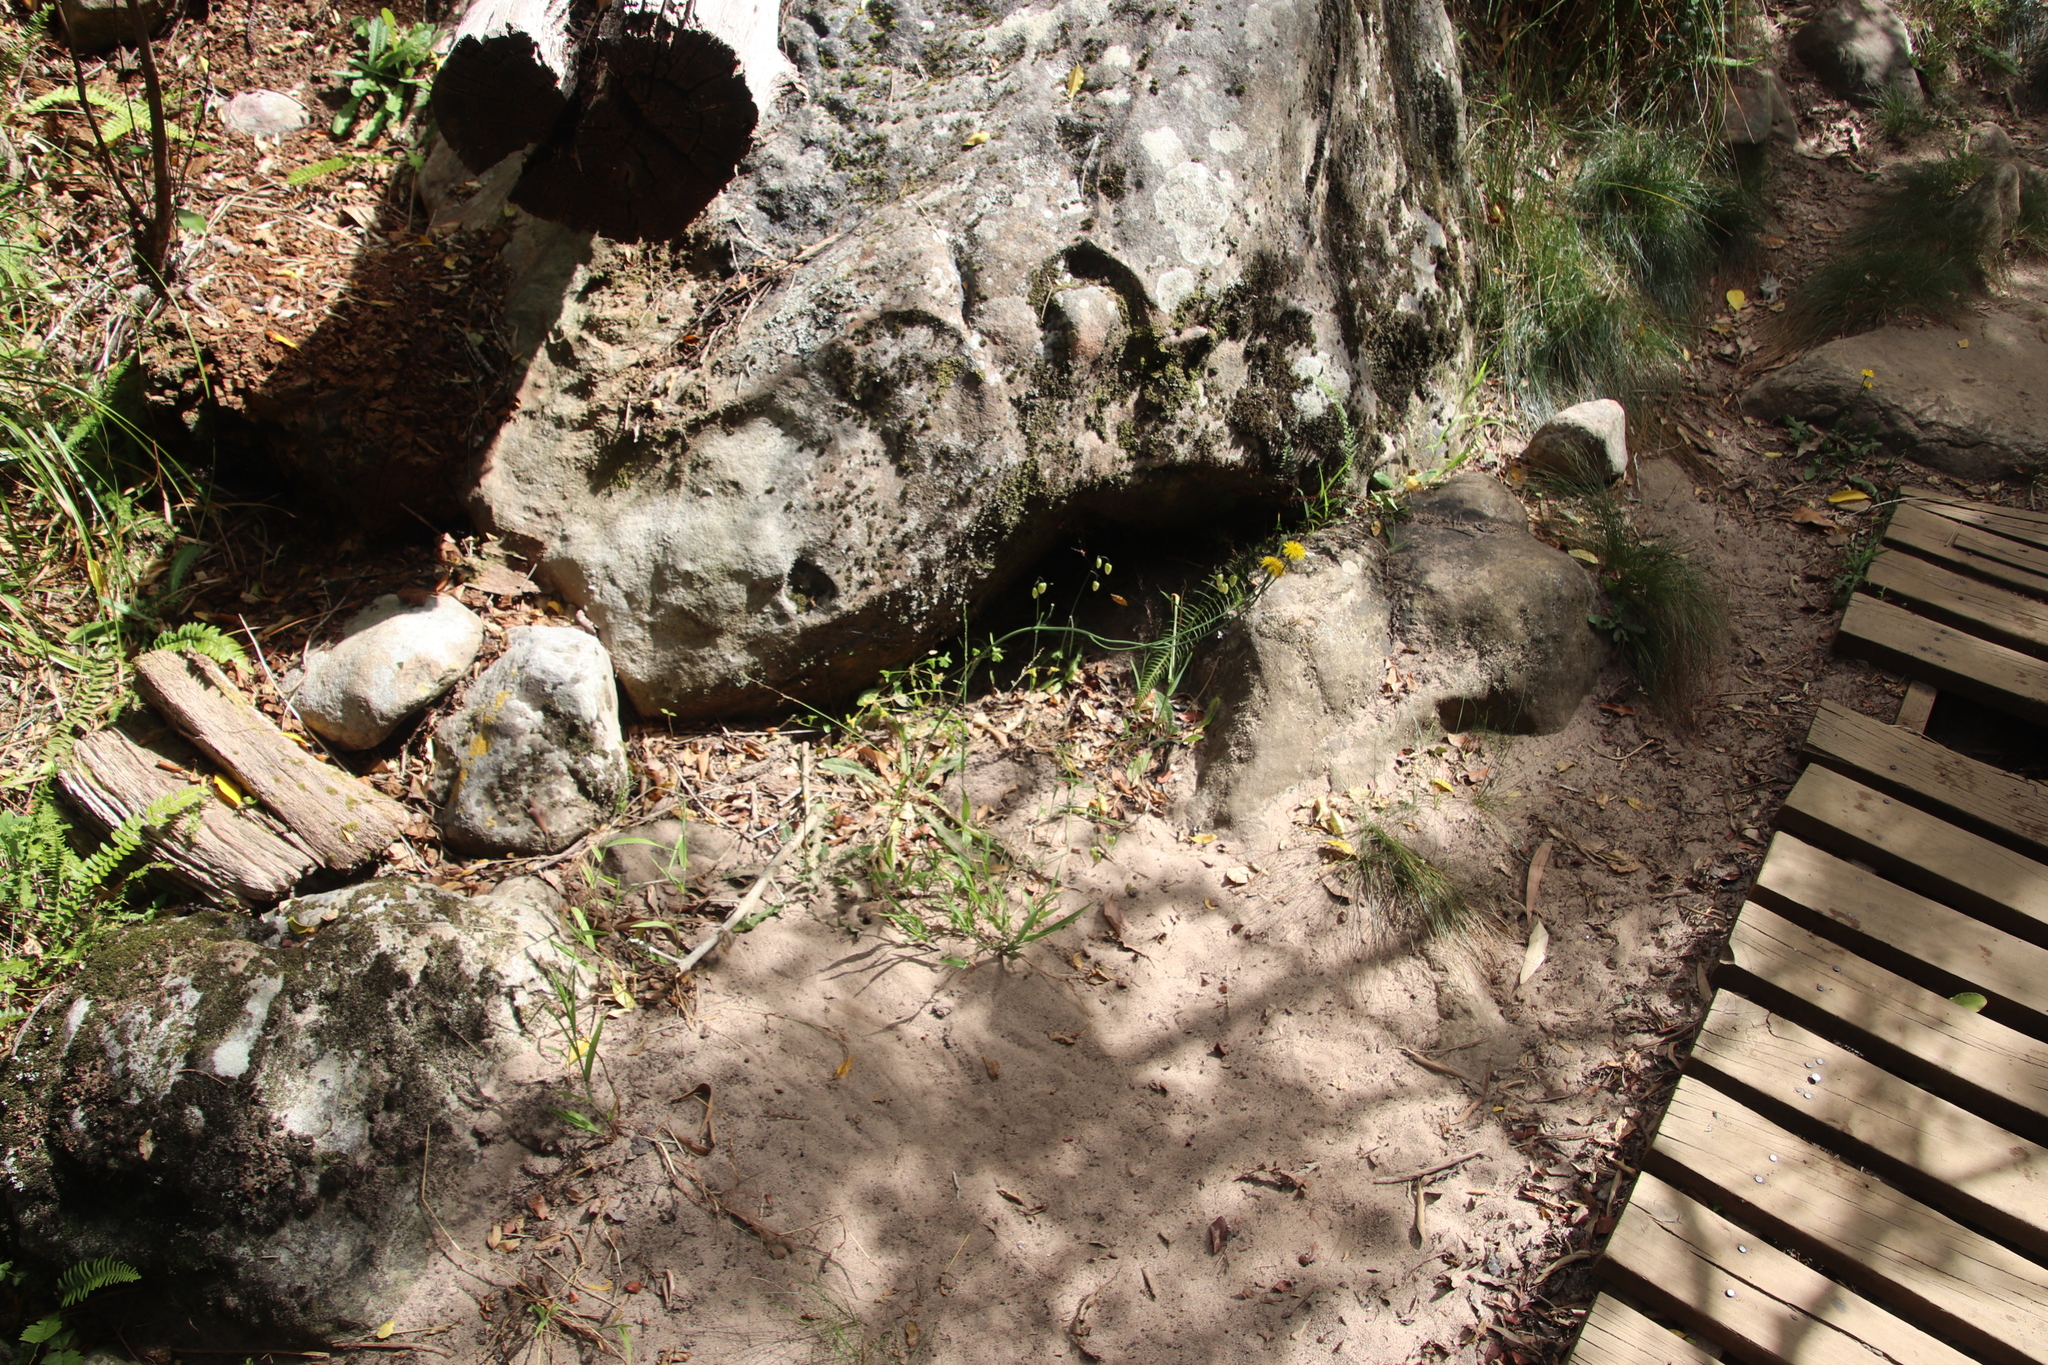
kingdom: Plantae
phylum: Tracheophyta
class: Magnoliopsida
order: Asterales
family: Asteraceae
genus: Hypochaeris
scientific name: Hypochaeris radicata
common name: Flatweed
